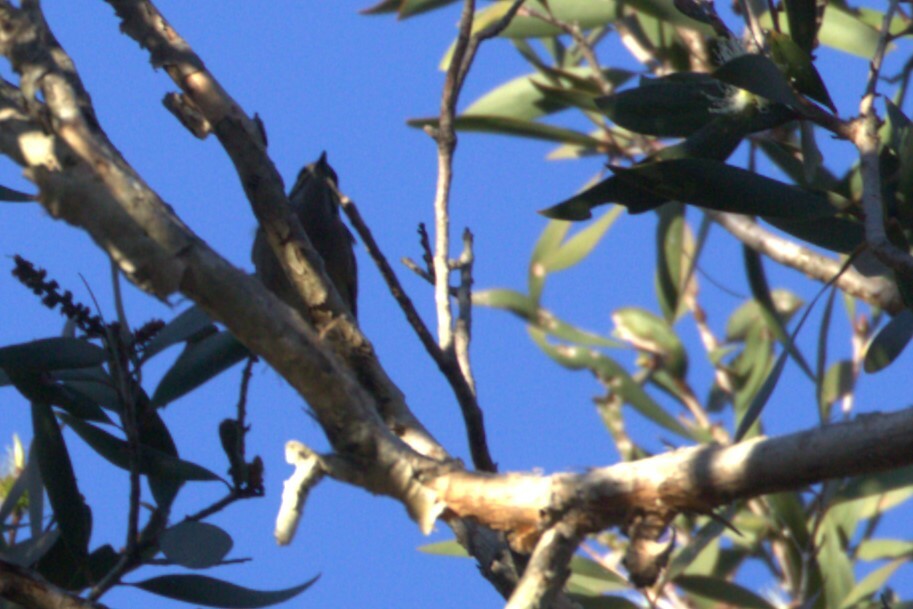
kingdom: Animalia
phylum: Chordata
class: Aves
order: Passeriformes
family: Meliphagidae
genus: Caligavis
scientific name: Caligavis chrysops
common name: Yellow-faced honeyeater
